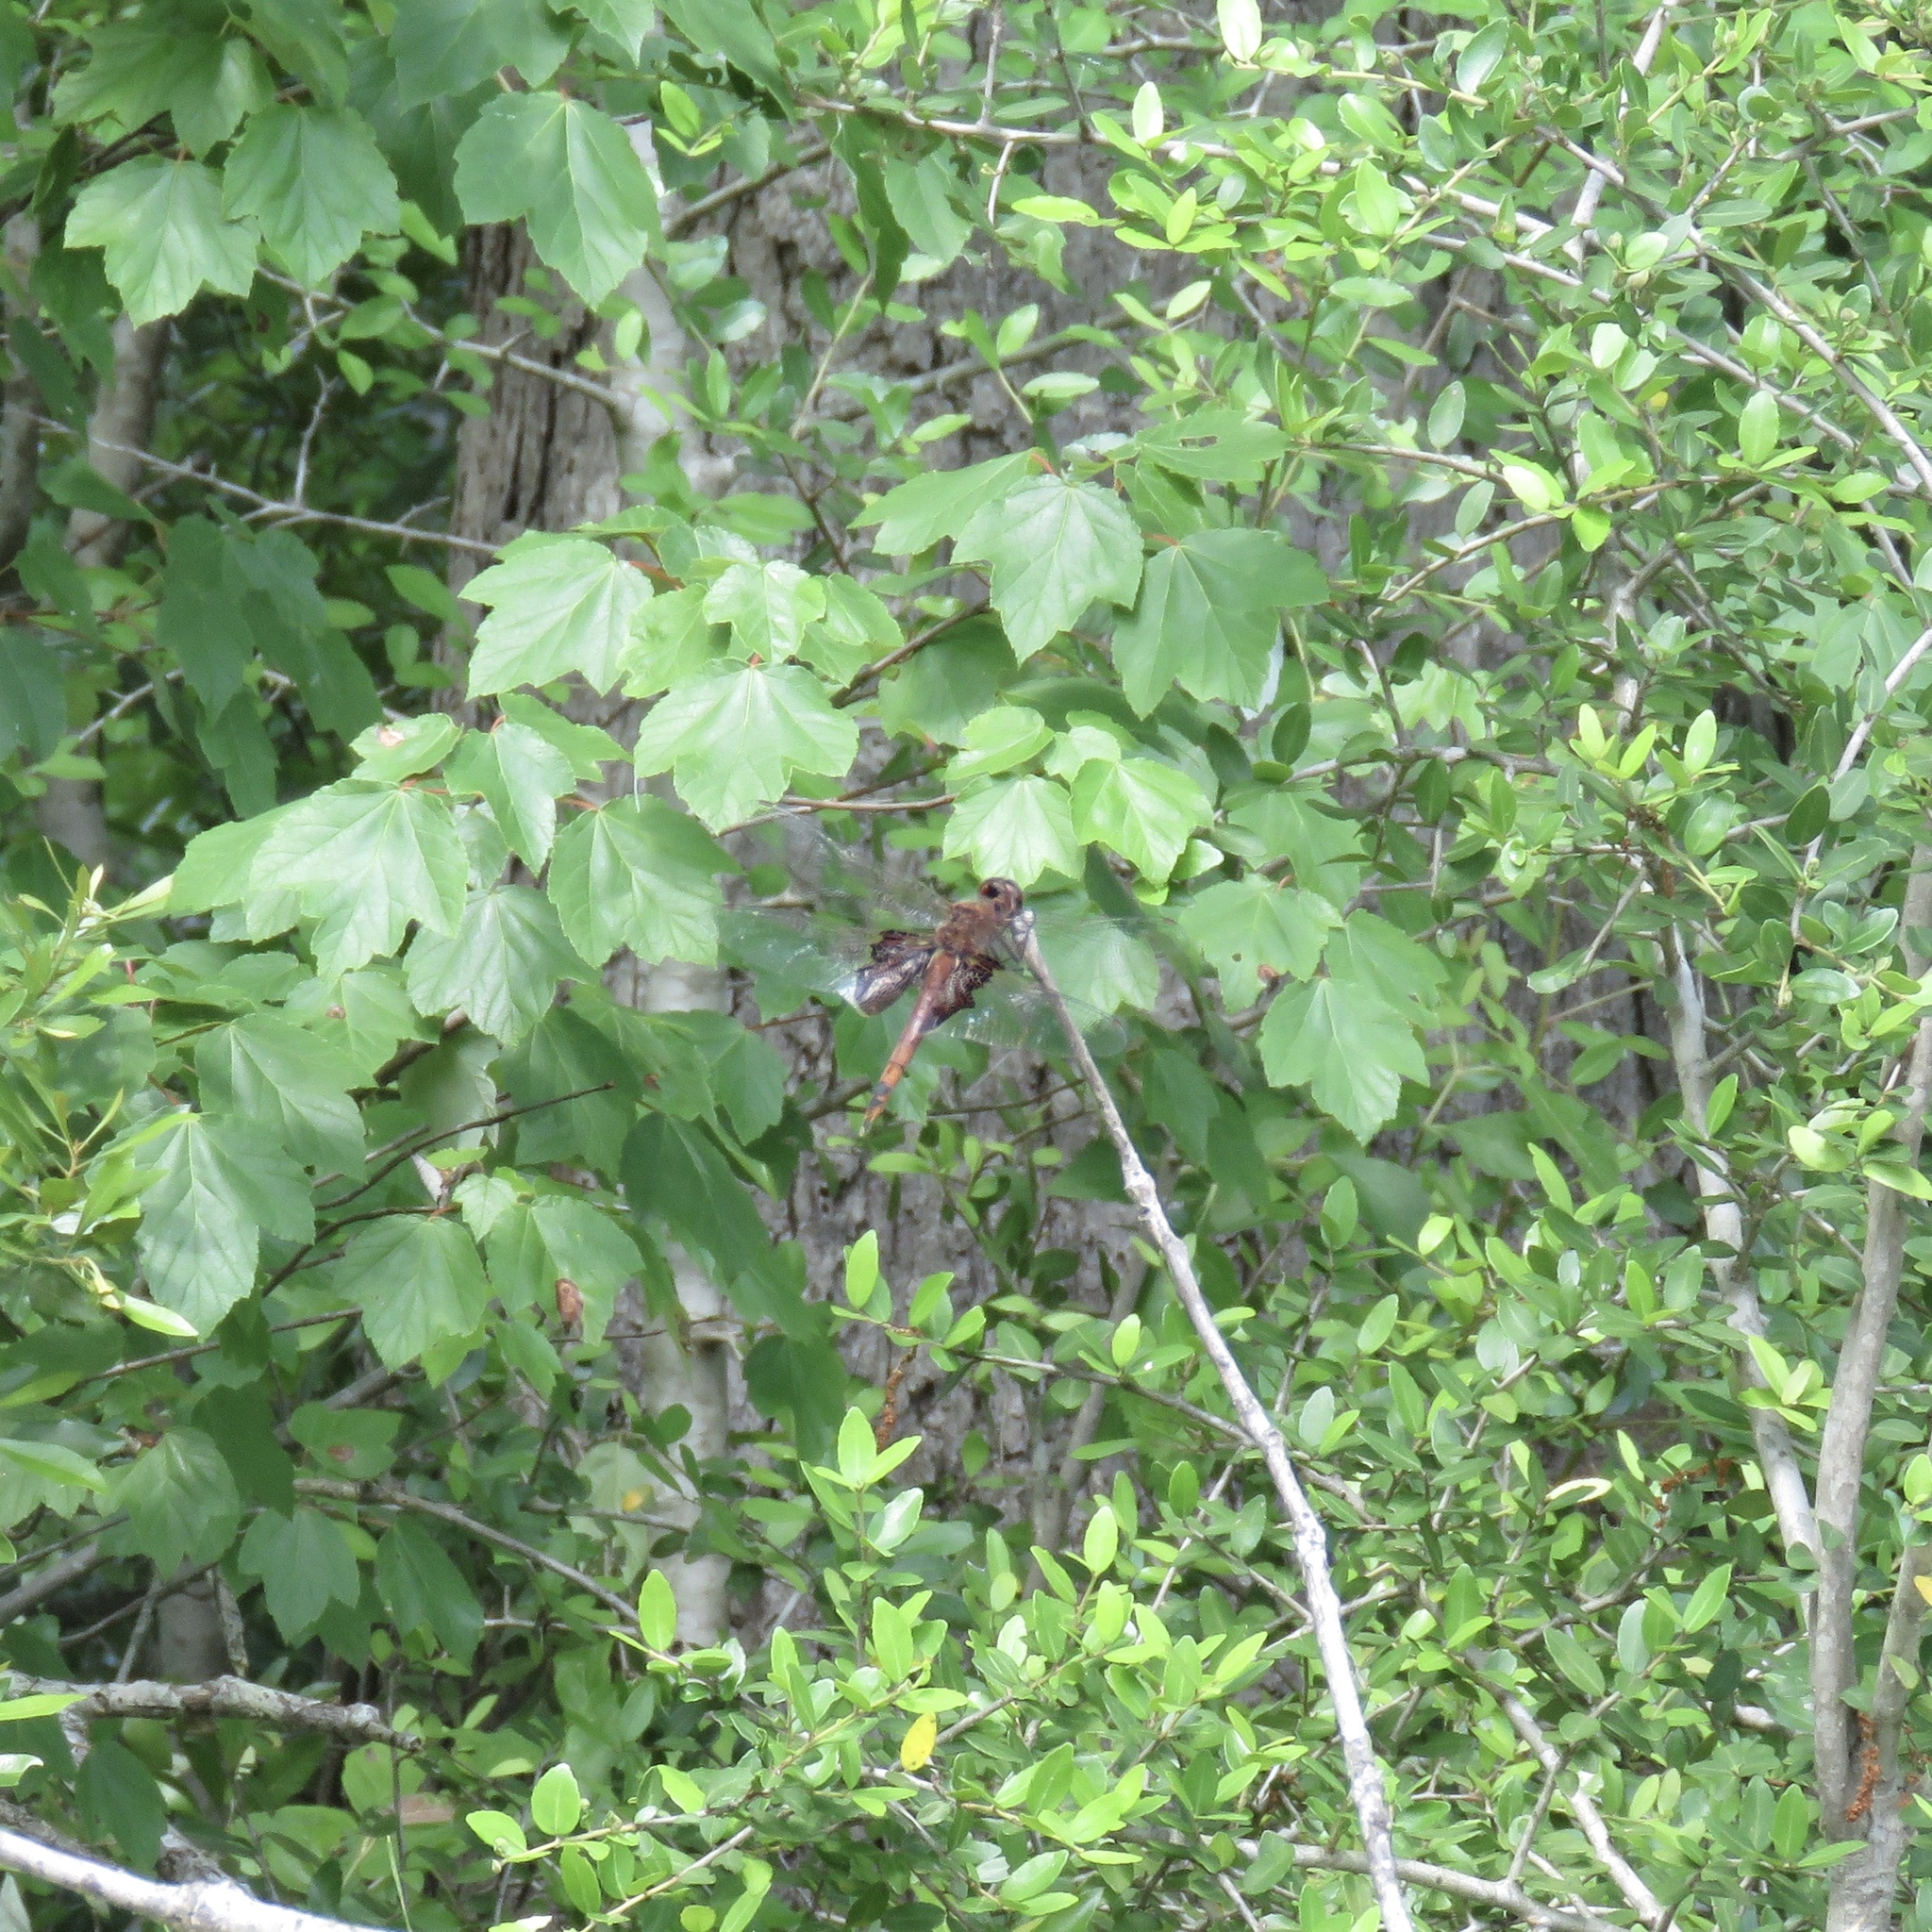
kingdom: Animalia
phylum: Arthropoda
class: Insecta
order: Odonata
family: Libellulidae
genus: Tramea
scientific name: Tramea carolina
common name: Carolina saddlebags
